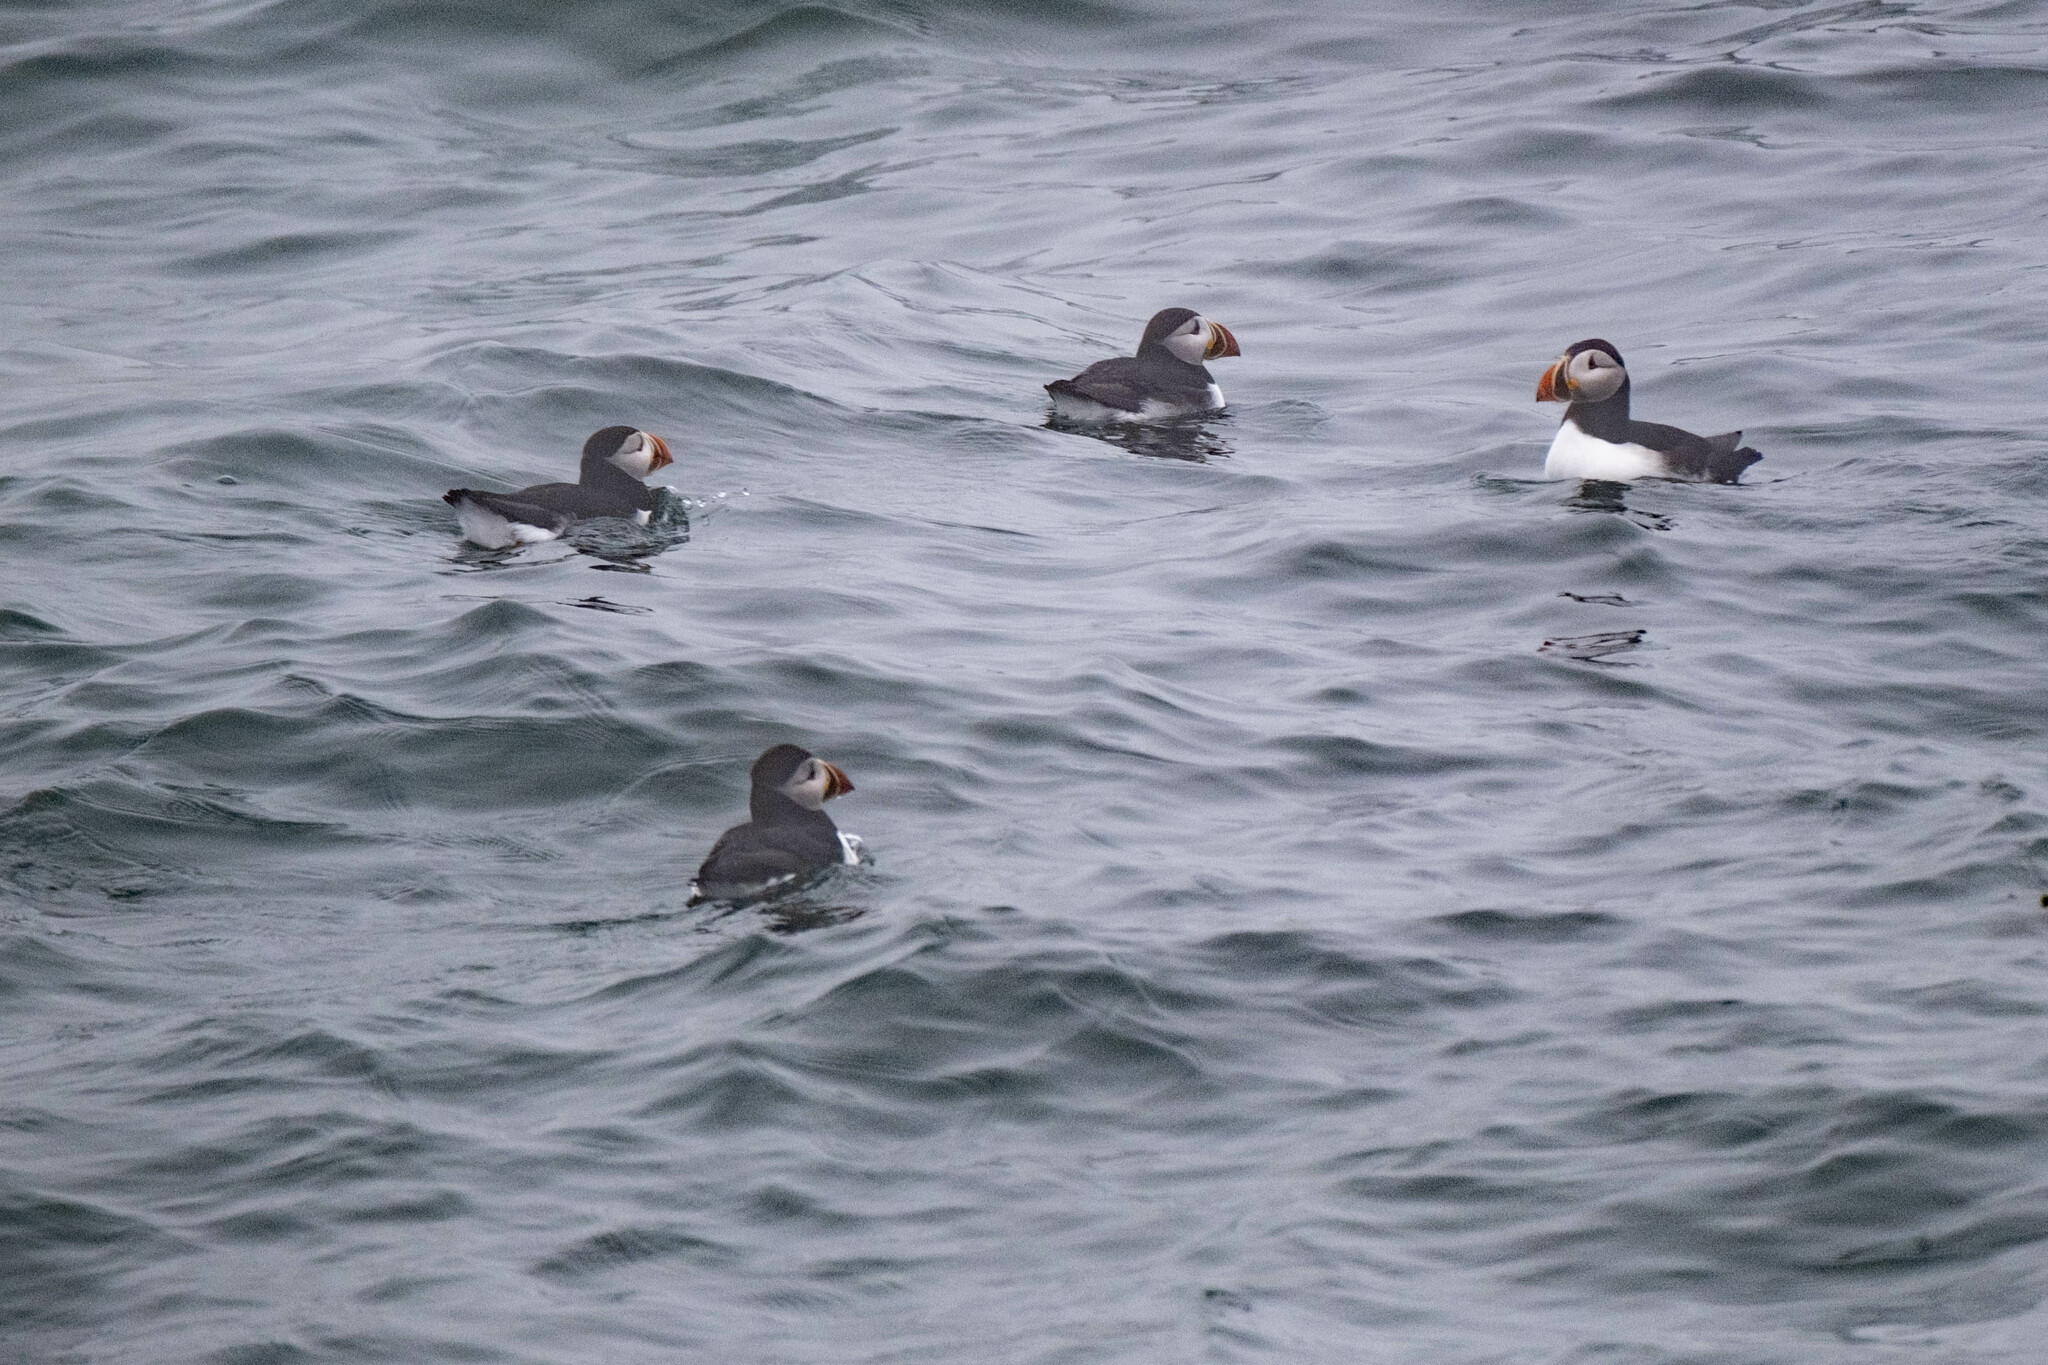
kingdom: Animalia
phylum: Chordata
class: Aves
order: Charadriiformes
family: Alcidae
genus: Fratercula
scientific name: Fratercula arctica
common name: Atlantic puffin
